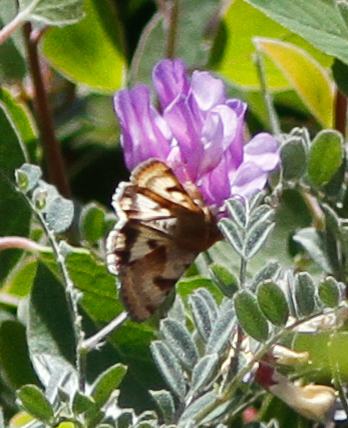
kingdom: Animalia
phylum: Arthropoda
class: Insecta
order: Lepidoptera
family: Noctuidae
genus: Heliothis
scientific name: Heliothis phloxiphaga
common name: Darker spotted straw moth
